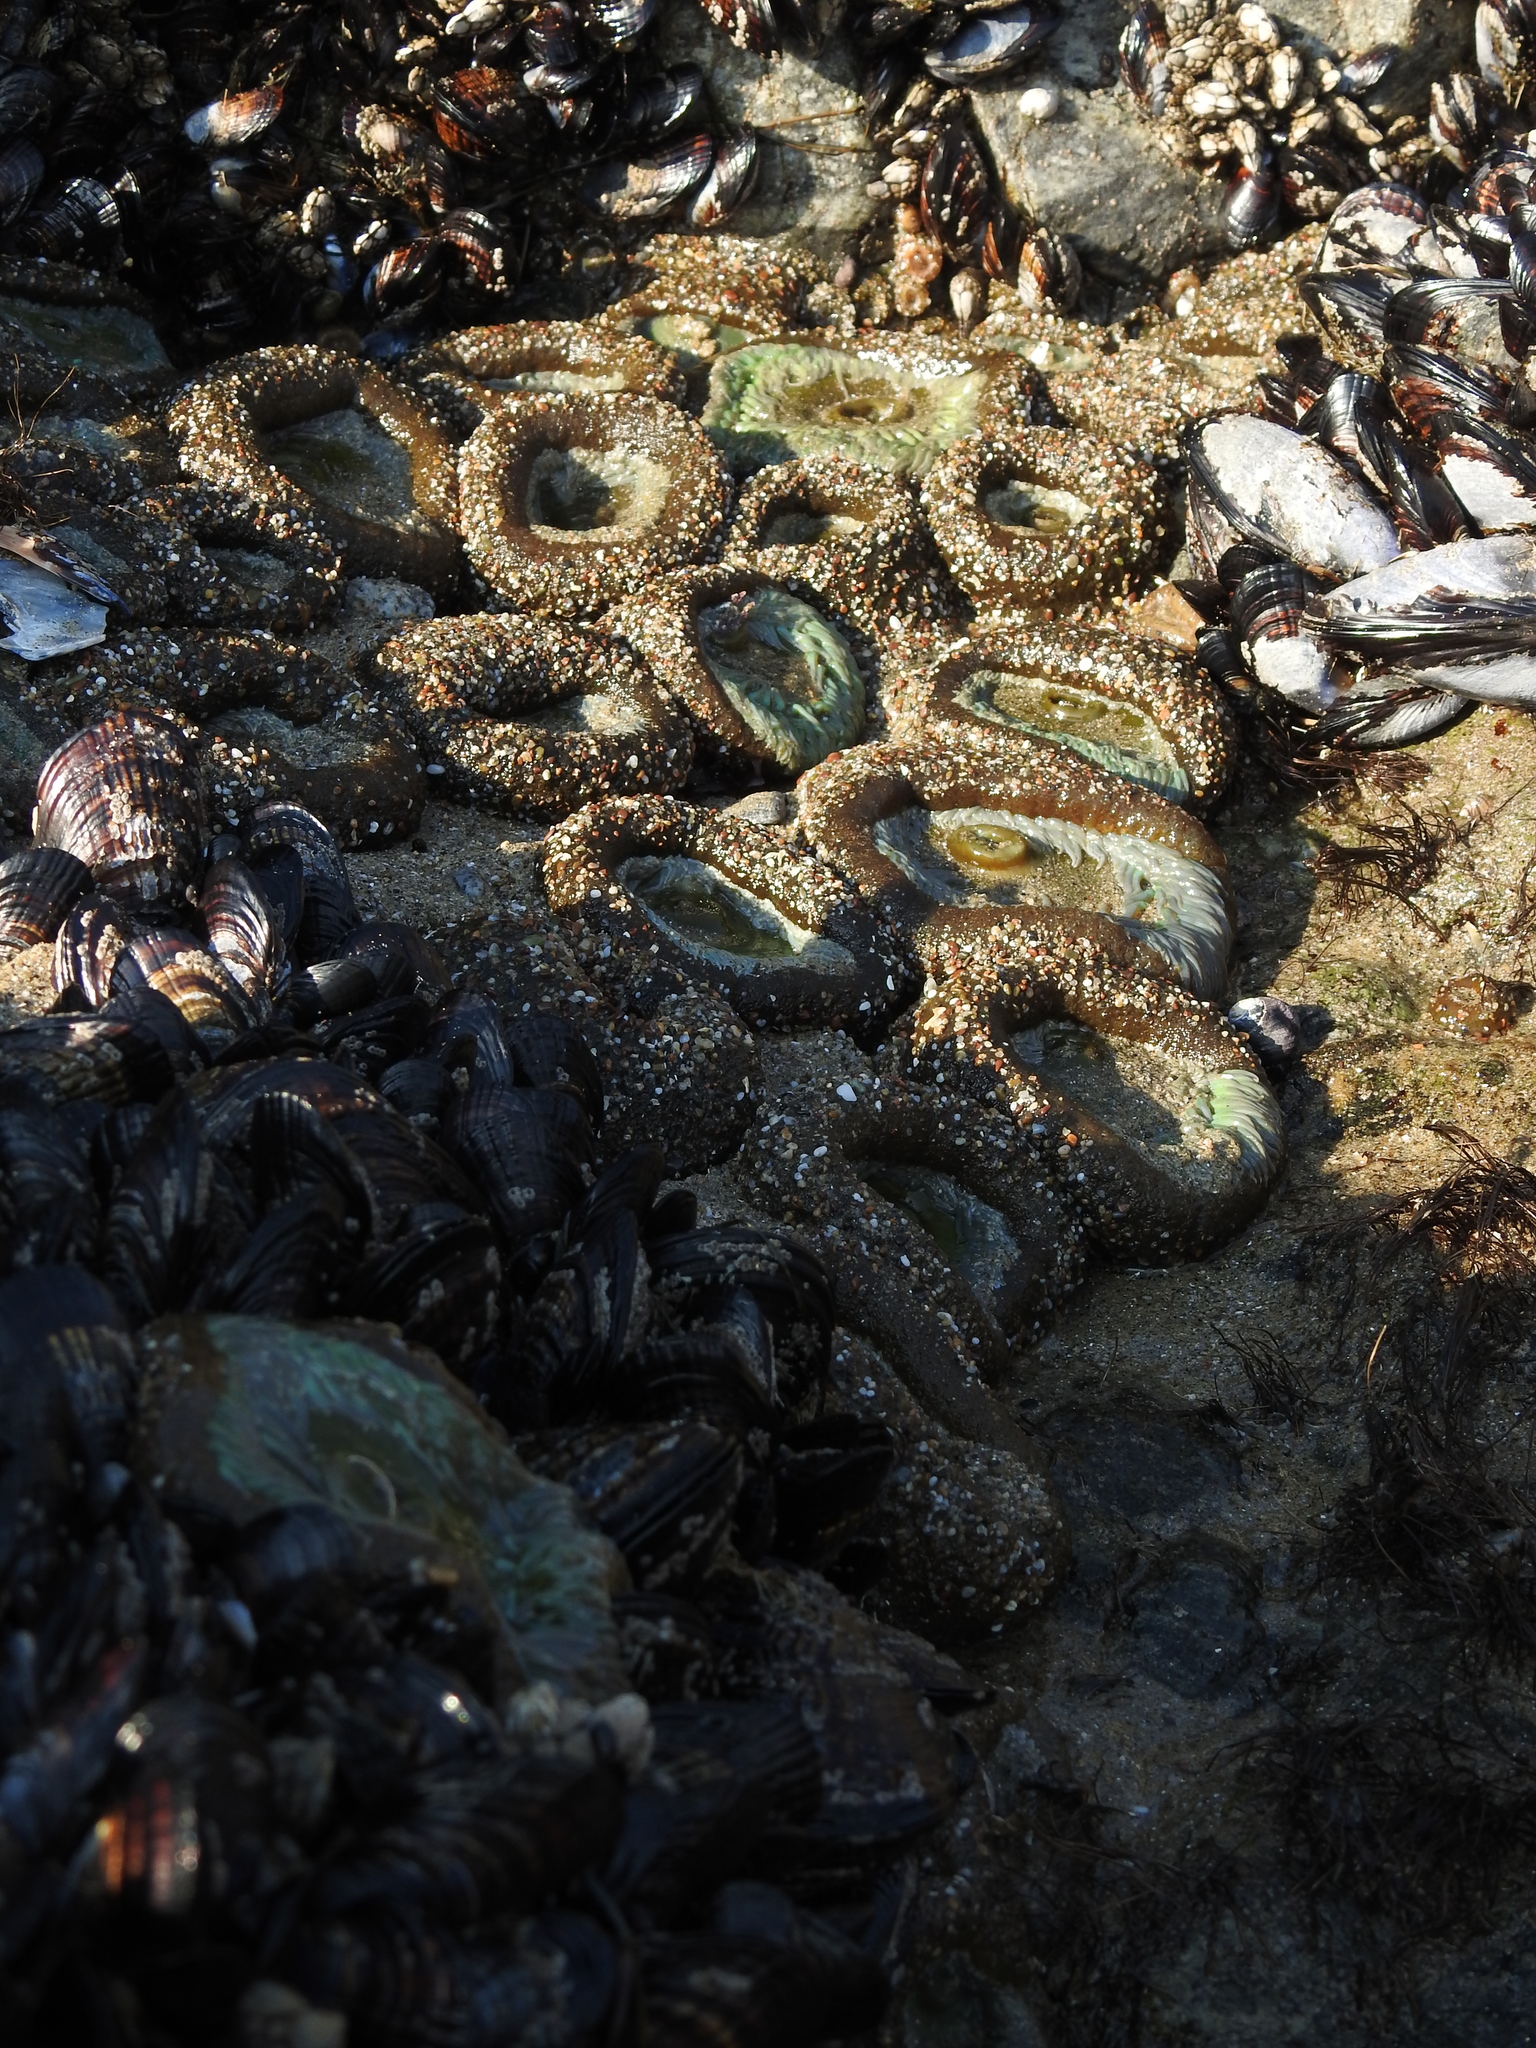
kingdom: Animalia
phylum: Cnidaria
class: Anthozoa
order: Actiniaria
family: Actiniidae
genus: Anthopleura
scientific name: Anthopleura xanthogrammica
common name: Giant green anemone
